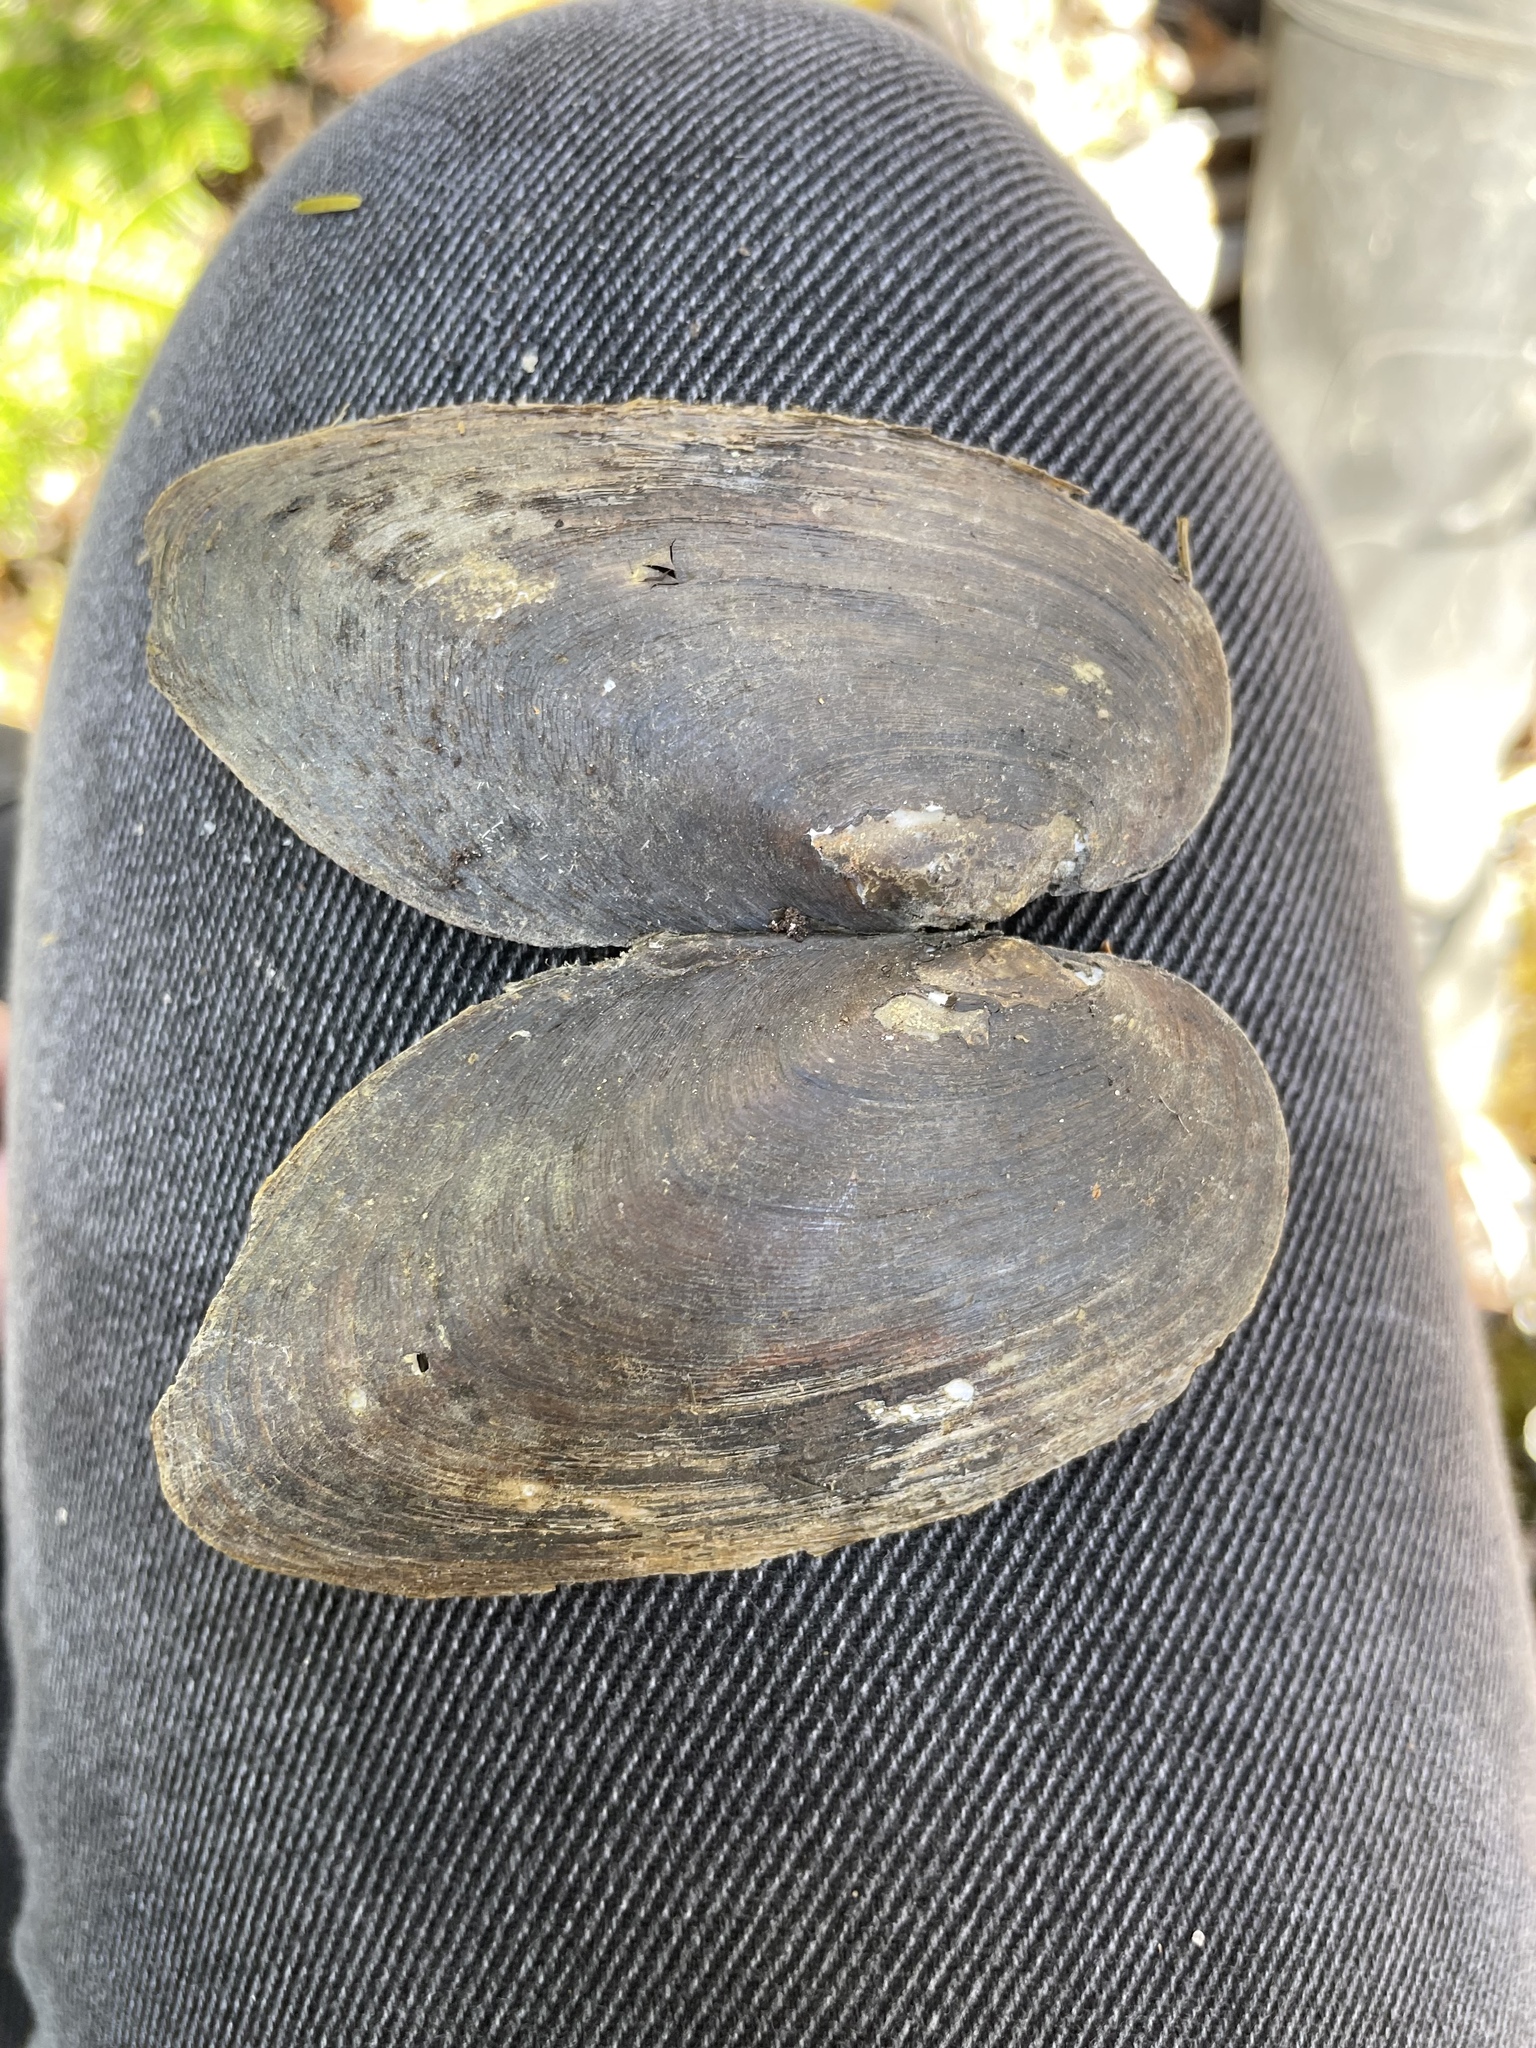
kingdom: Animalia
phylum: Mollusca
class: Bivalvia
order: Unionida
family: Unionidae
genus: Elliptio
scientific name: Elliptio complanata
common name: Eastern elliptio
